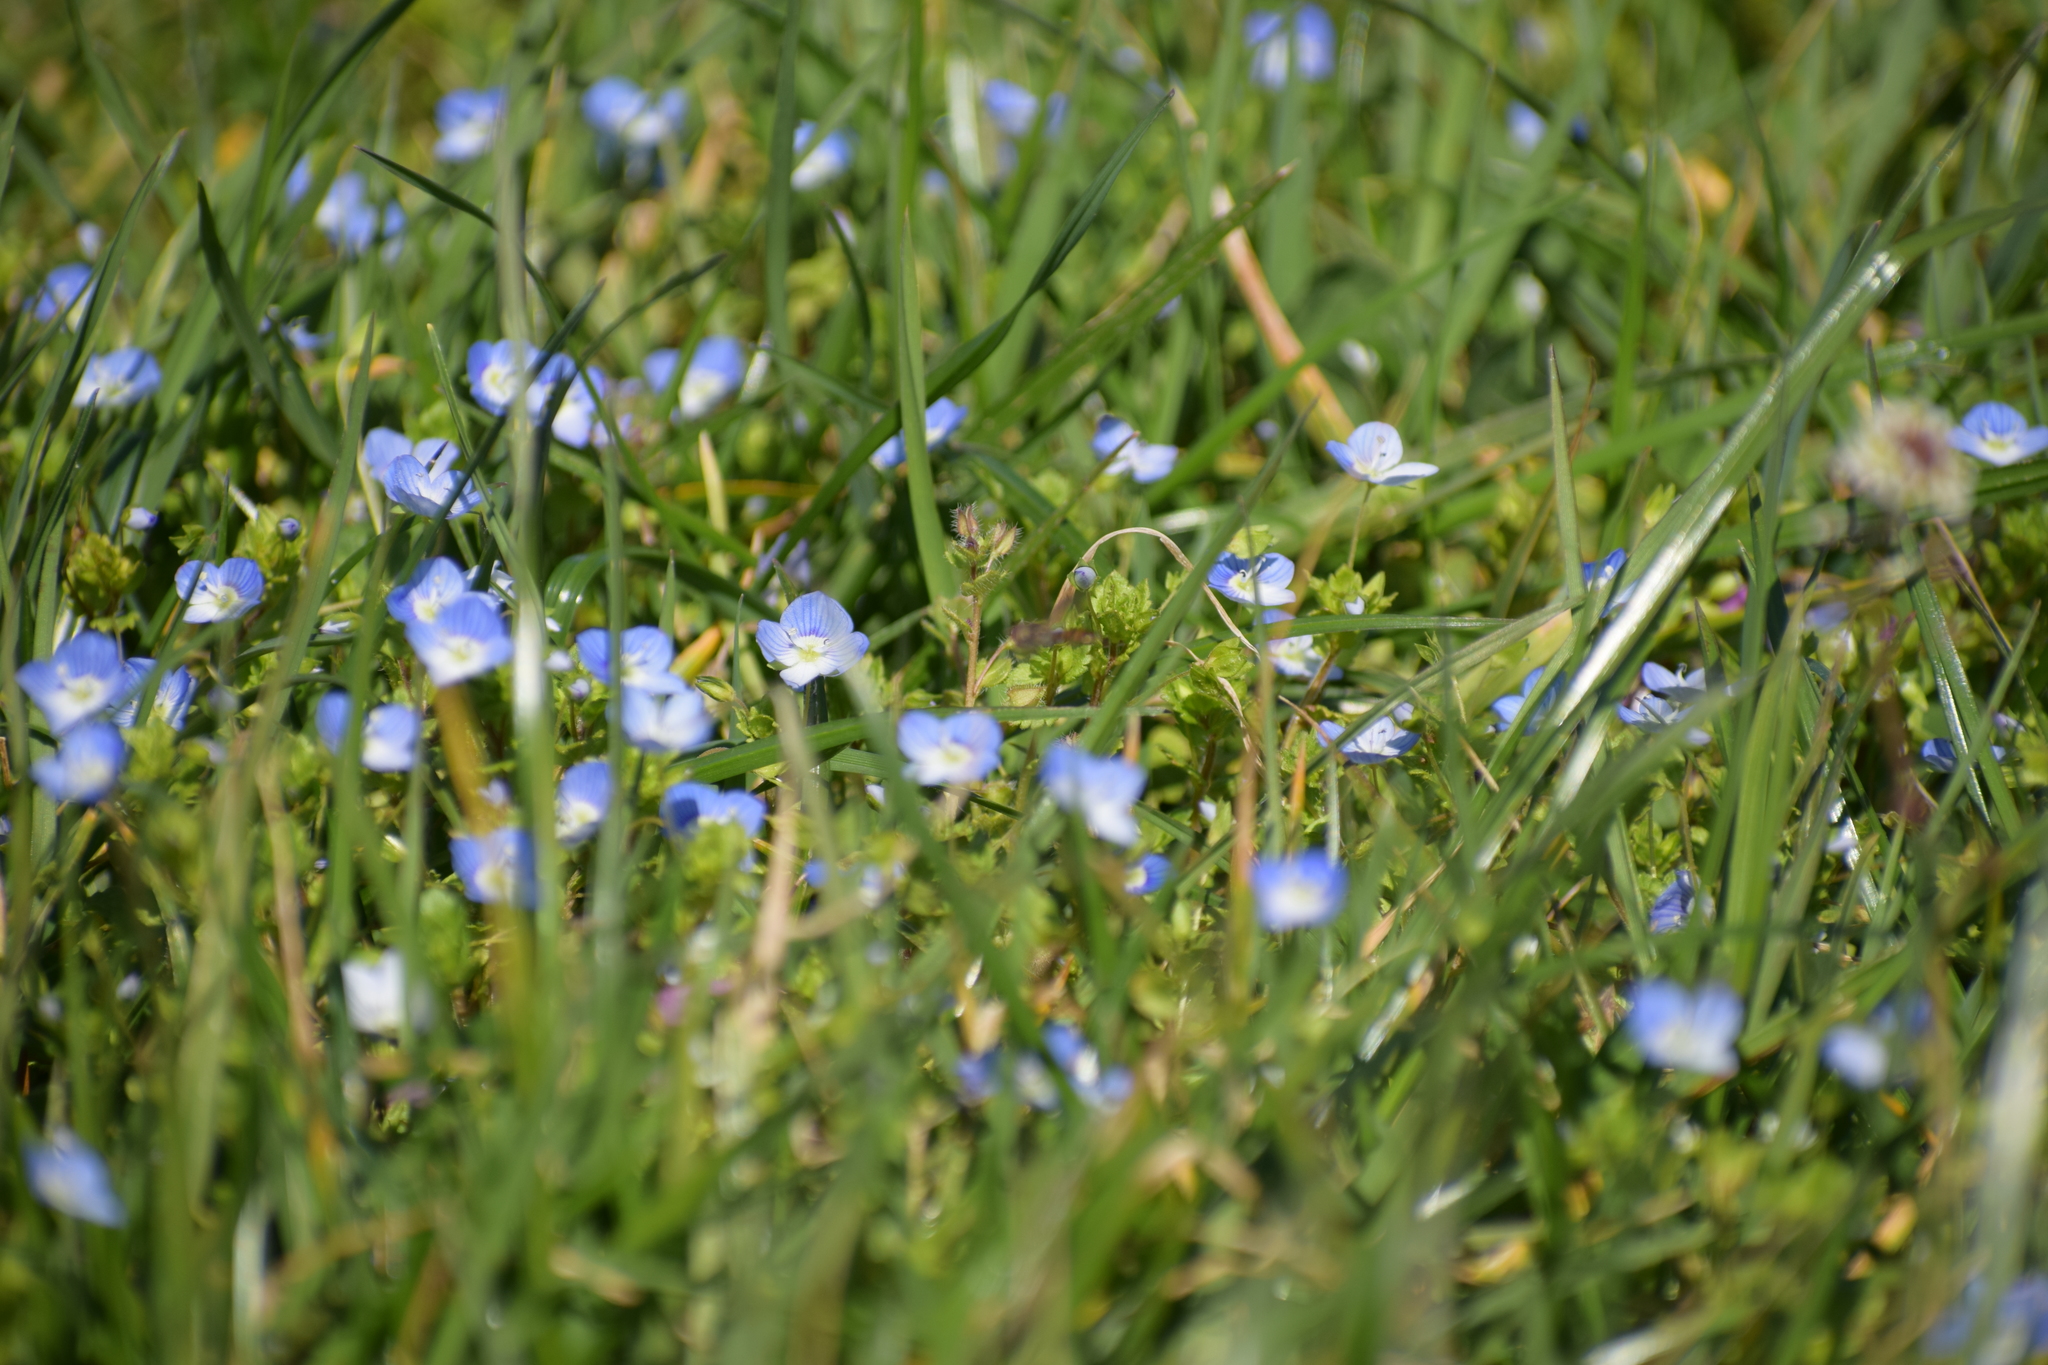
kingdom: Plantae
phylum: Tracheophyta
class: Magnoliopsida
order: Lamiales
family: Plantaginaceae
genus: Veronica
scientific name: Veronica persica
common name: Common field-speedwell
